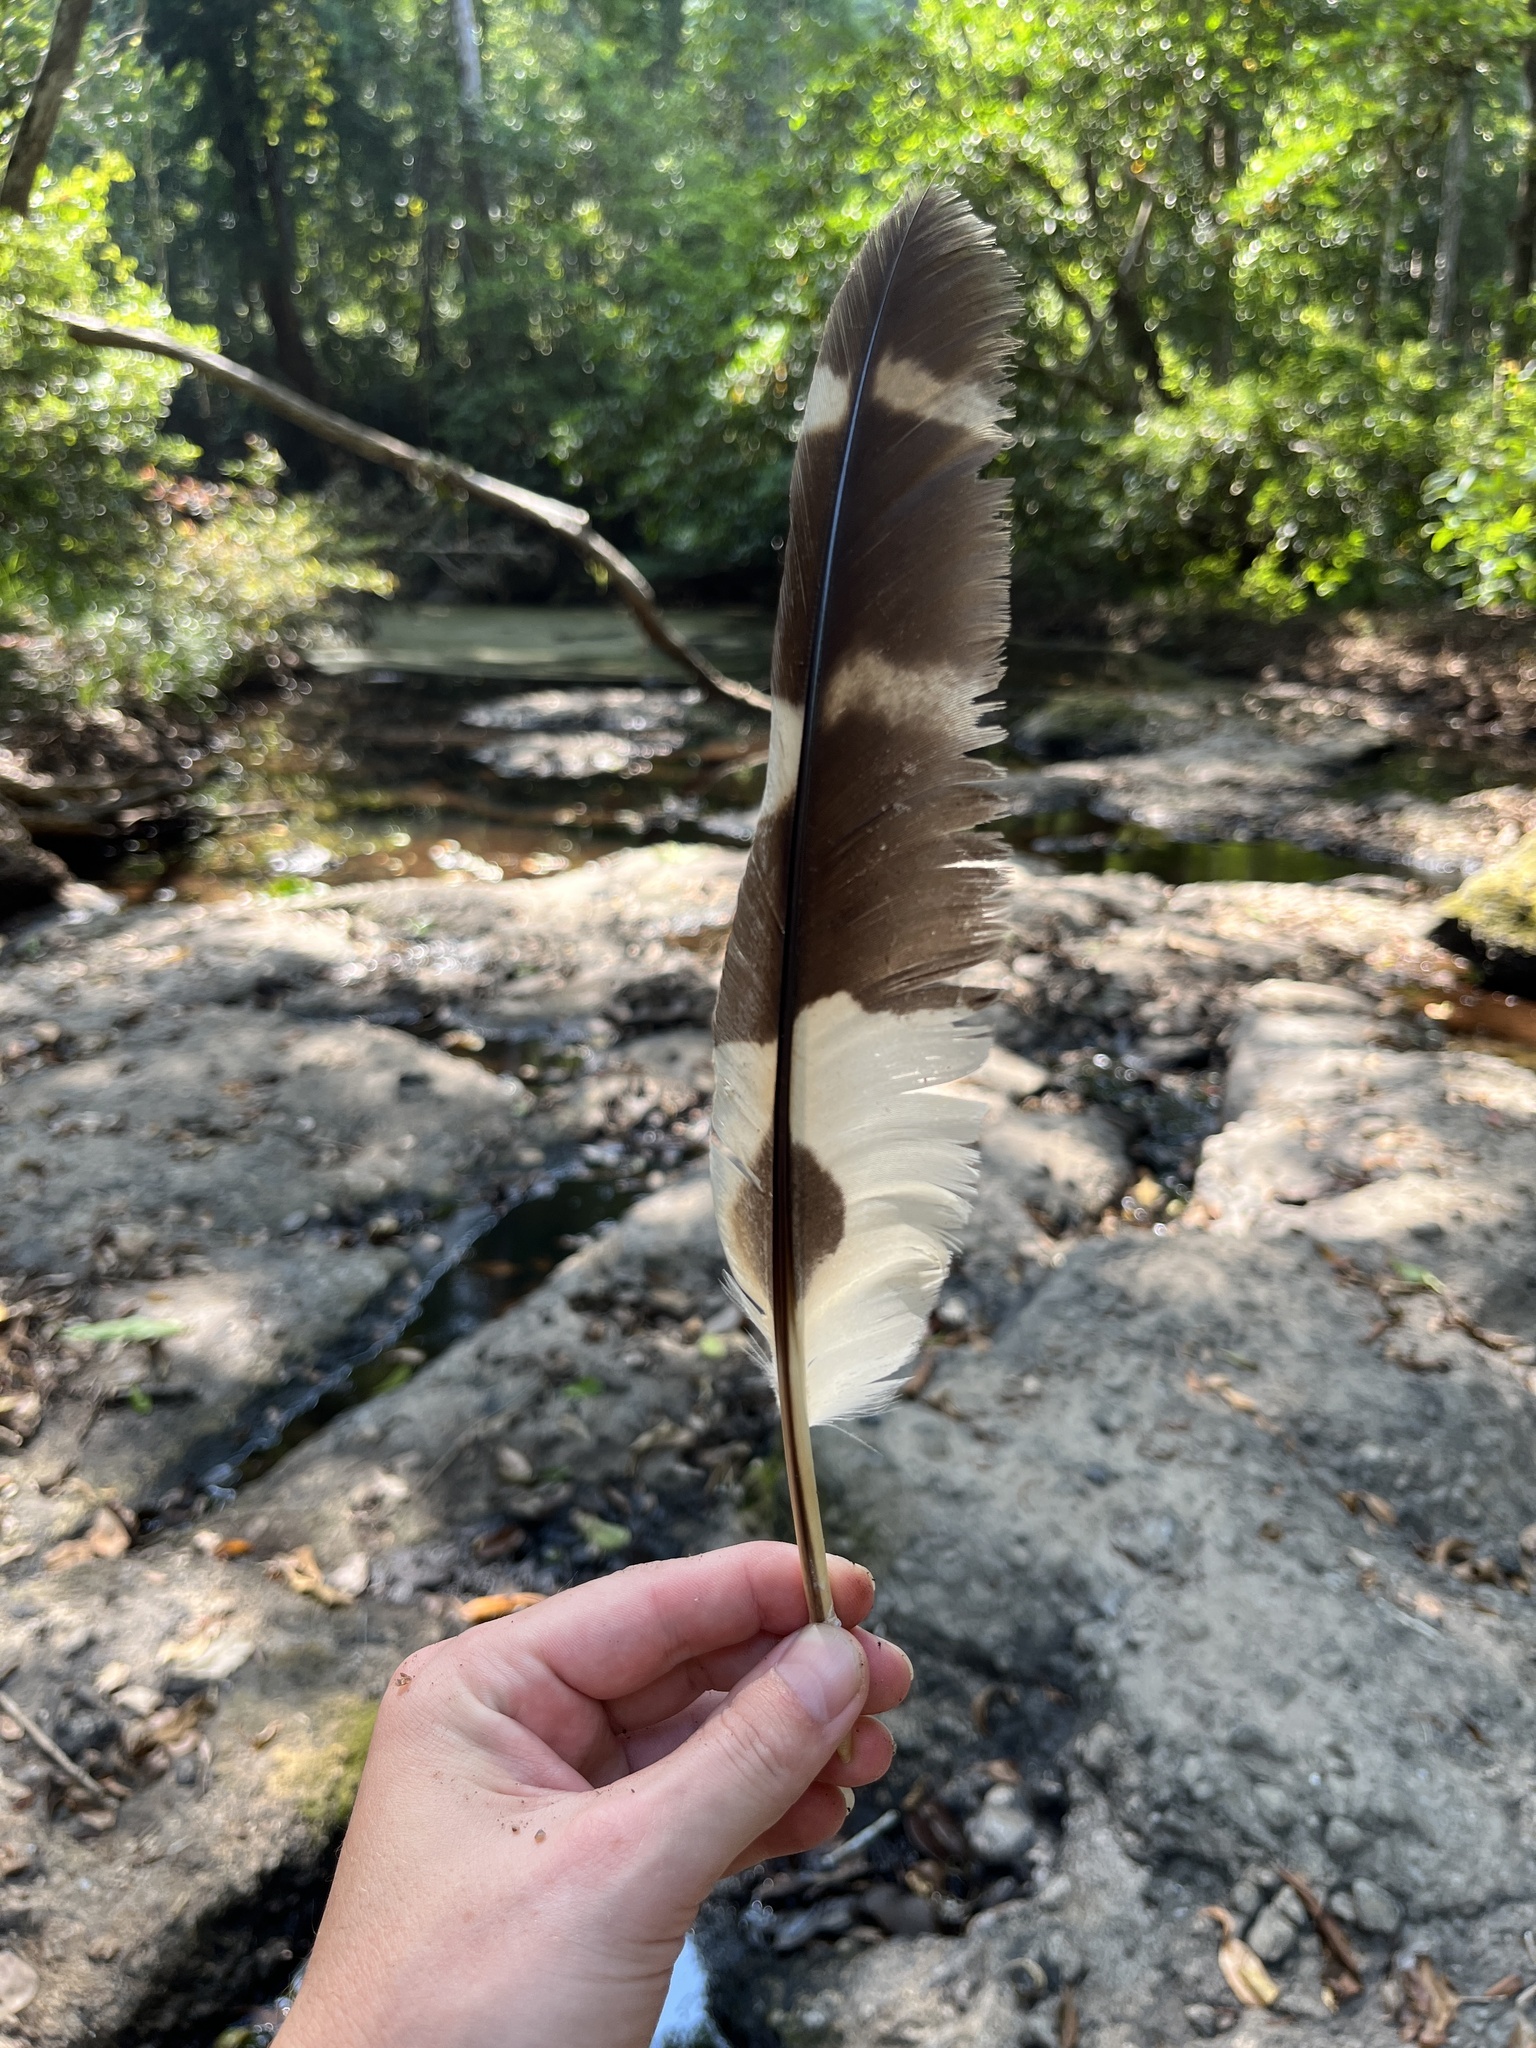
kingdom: Animalia
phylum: Chordata
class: Aves
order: Strigiformes
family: Strigidae
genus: Ketupa
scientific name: Ketupa zeylonensis
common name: Brown fish owl
